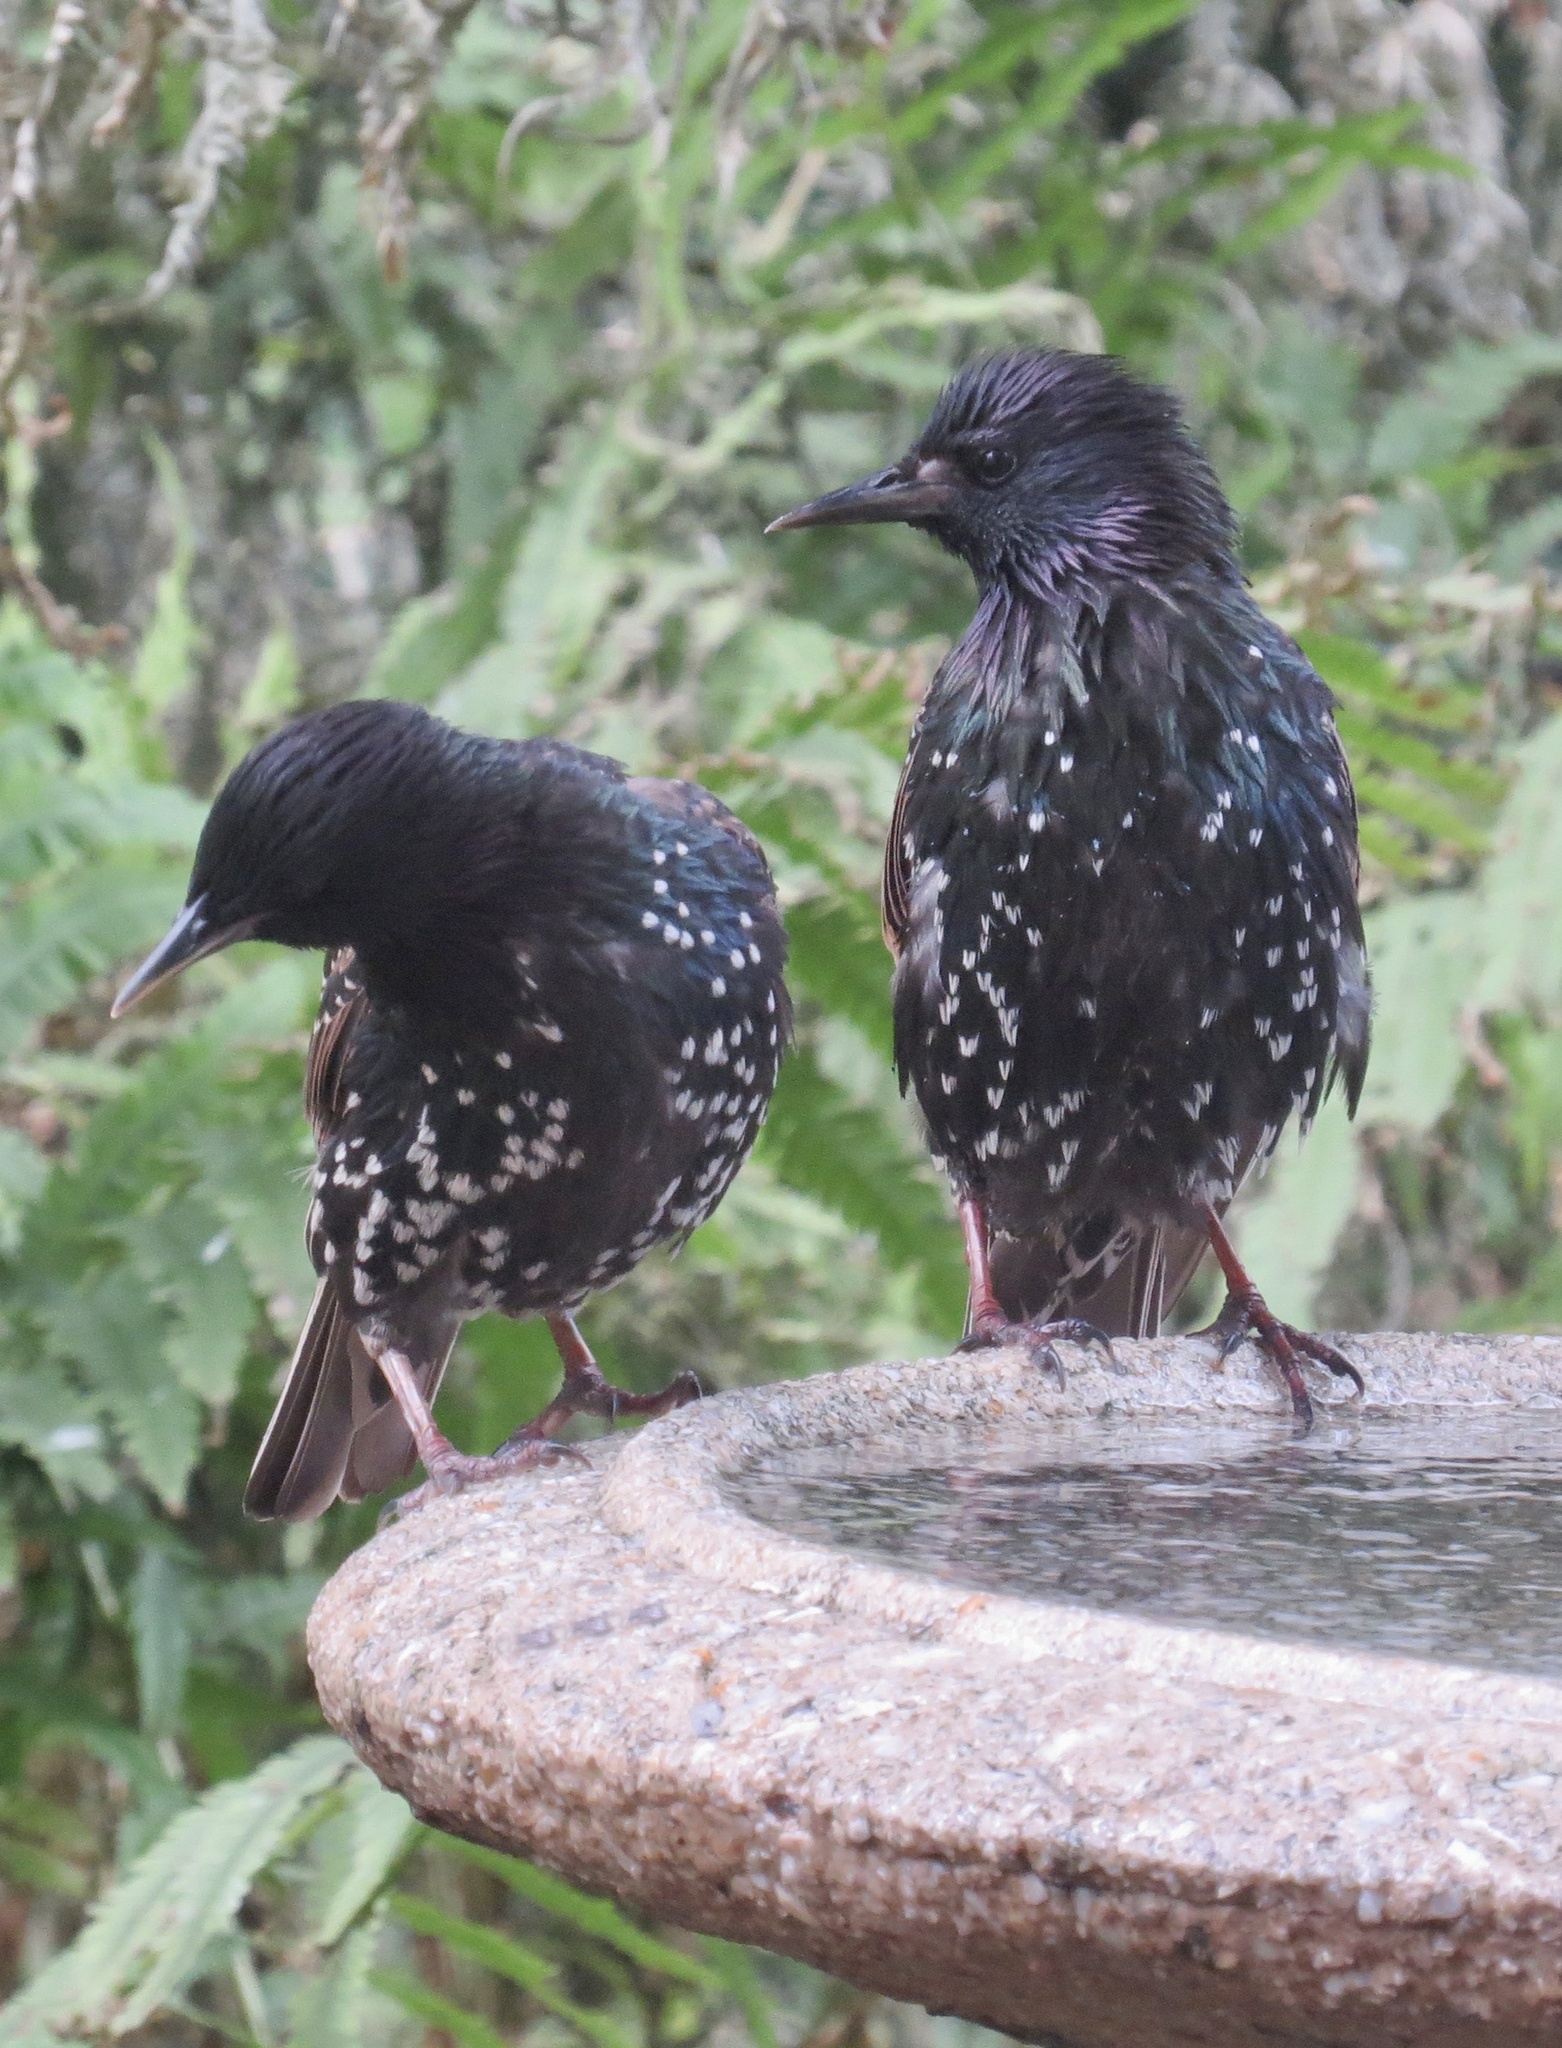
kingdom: Animalia
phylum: Chordata
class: Aves
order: Passeriformes
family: Sturnidae
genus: Sturnus
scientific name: Sturnus vulgaris
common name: Common starling
